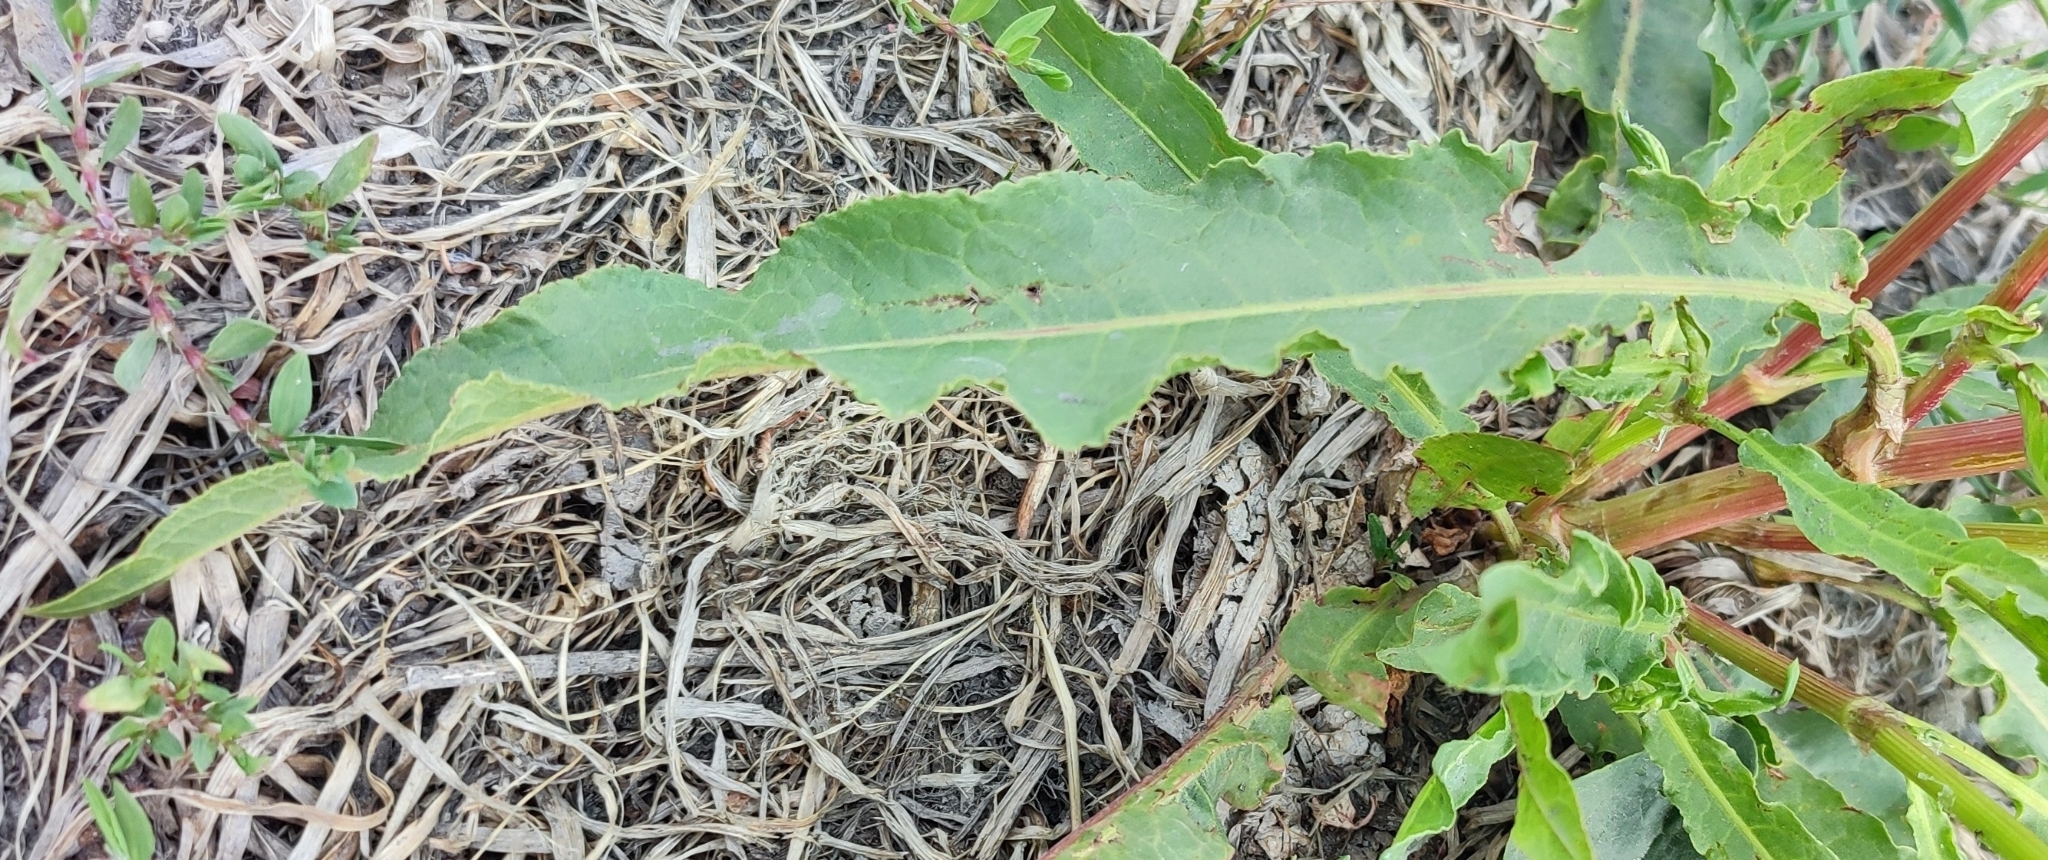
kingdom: Plantae
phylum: Tracheophyta
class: Magnoliopsida
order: Caryophyllales
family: Polygonaceae
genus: Rumex
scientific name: Rumex pseudonatronatus
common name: Field dock
